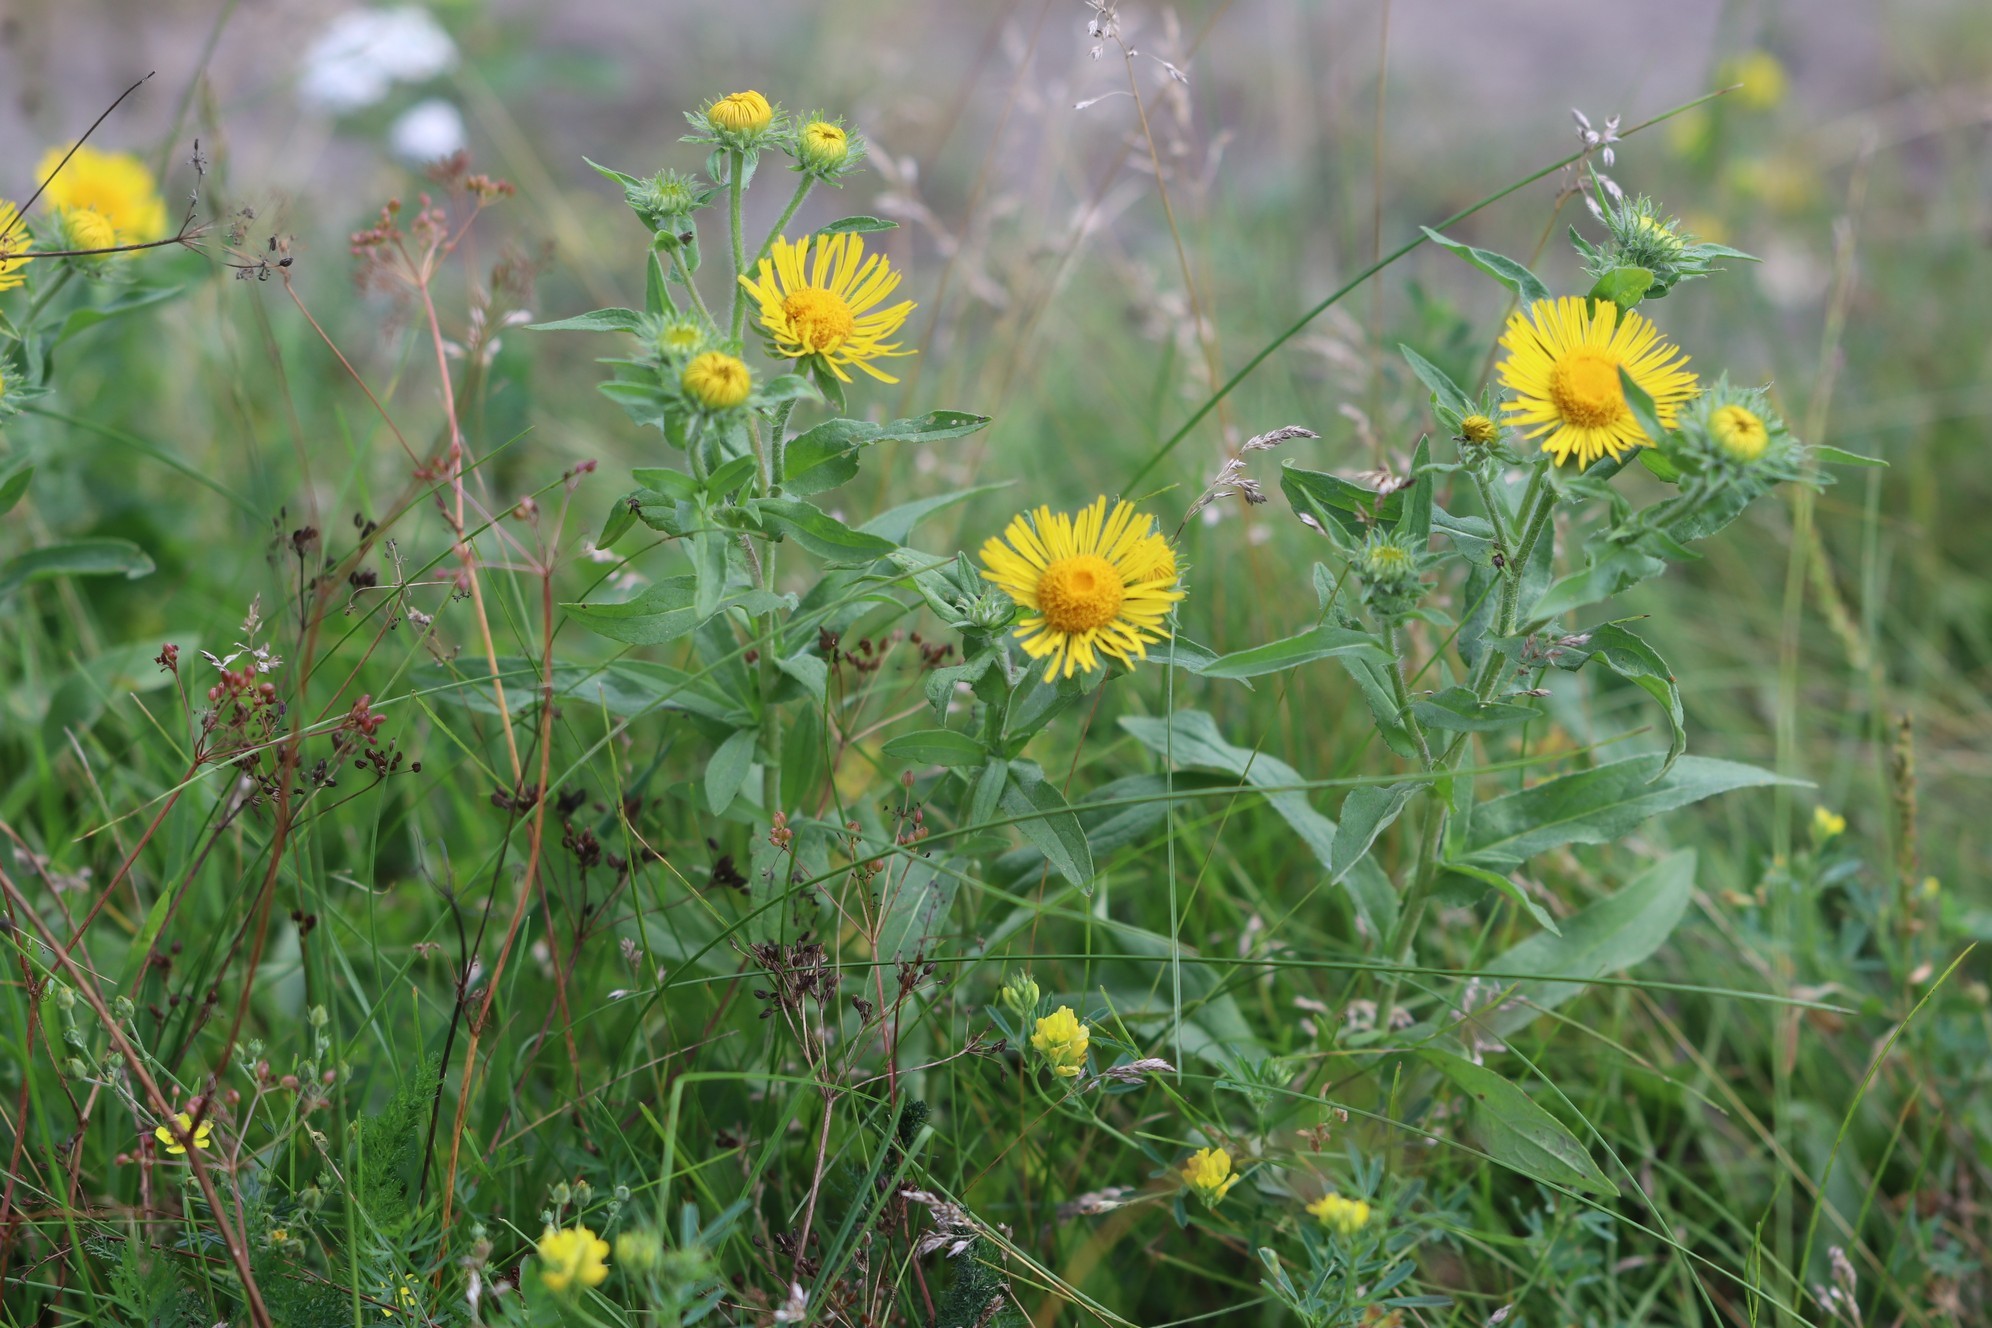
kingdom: Plantae
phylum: Tracheophyta
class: Magnoliopsida
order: Asterales
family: Asteraceae
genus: Pentanema
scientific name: Pentanema britannicum
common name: British elecampane
